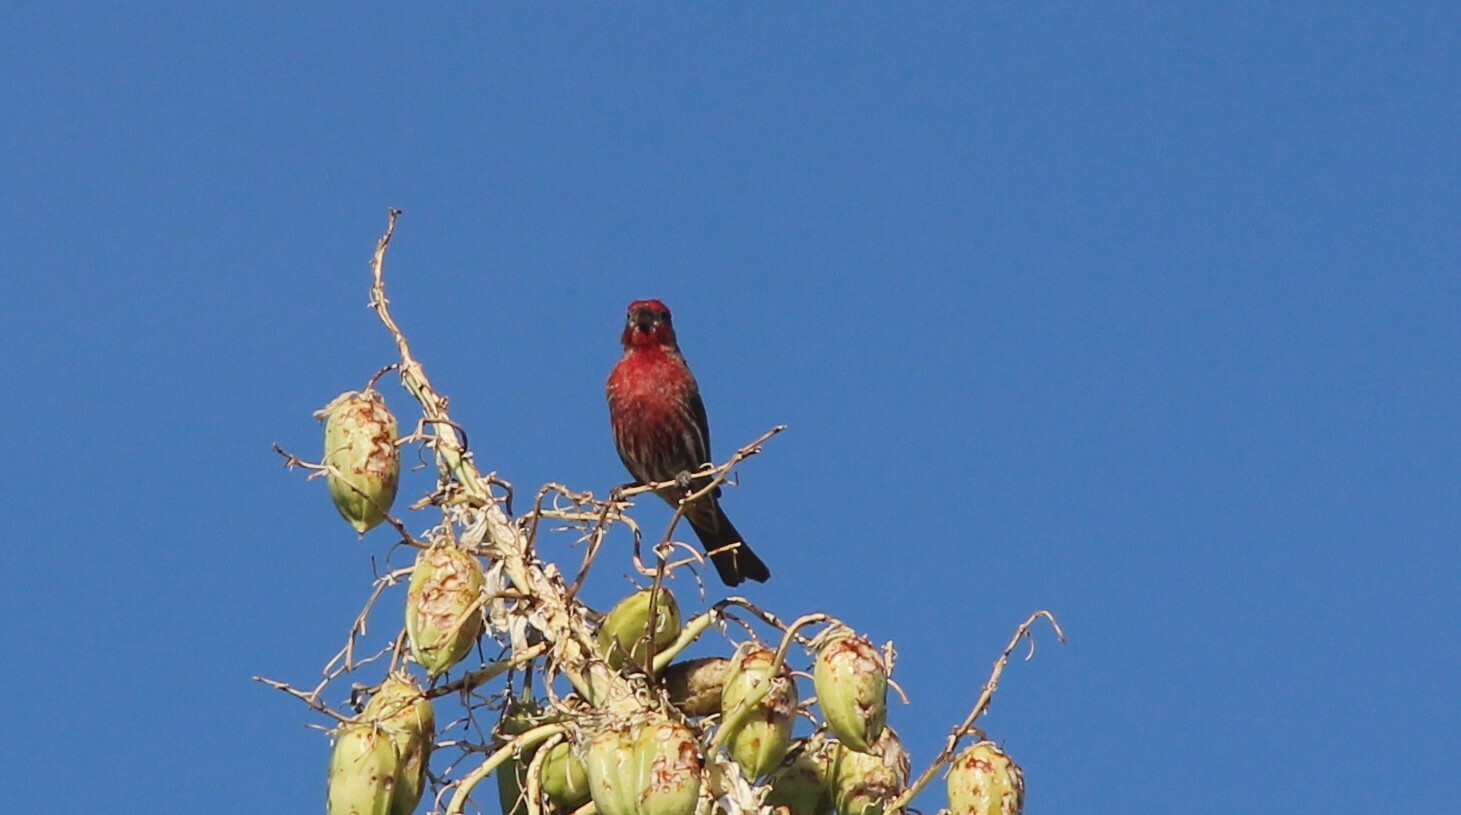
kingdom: Animalia
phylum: Chordata
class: Aves
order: Passeriformes
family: Fringillidae
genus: Haemorhous
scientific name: Haemorhous mexicanus
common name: House finch
